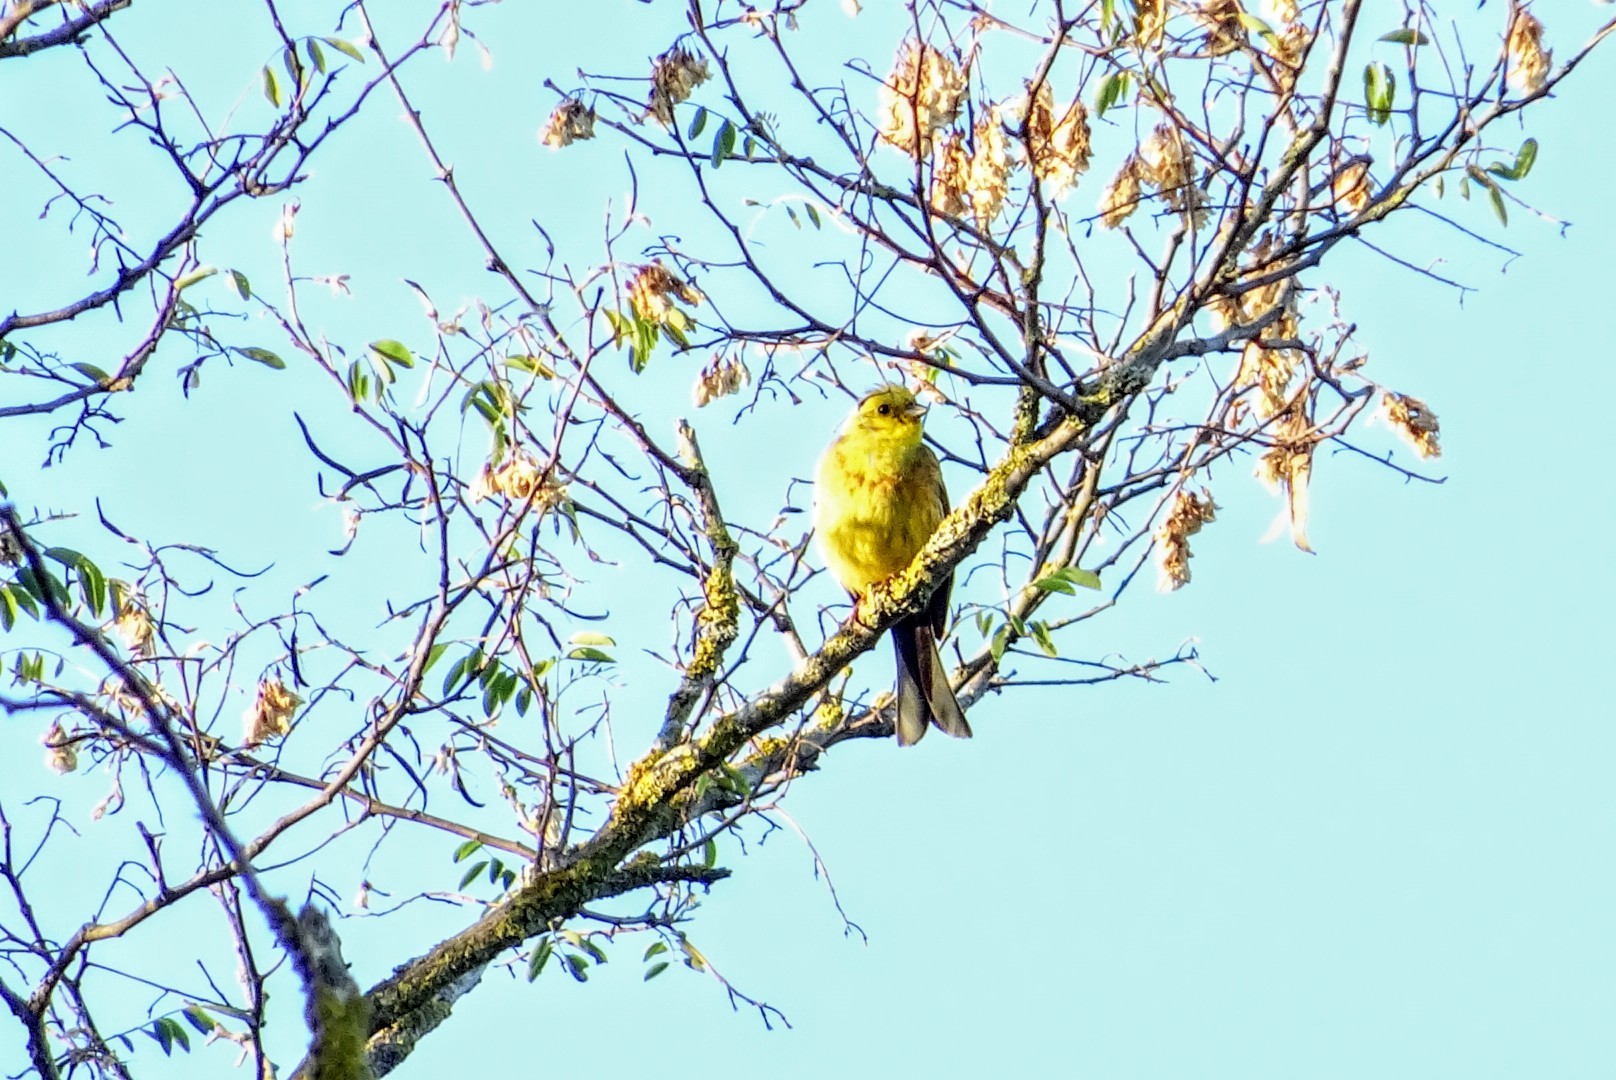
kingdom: Animalia
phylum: Chordata
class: Aves
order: Passeriformes
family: Emberizidae
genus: Emberiza
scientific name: Emberiza citrinella
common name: Yellowhammer
